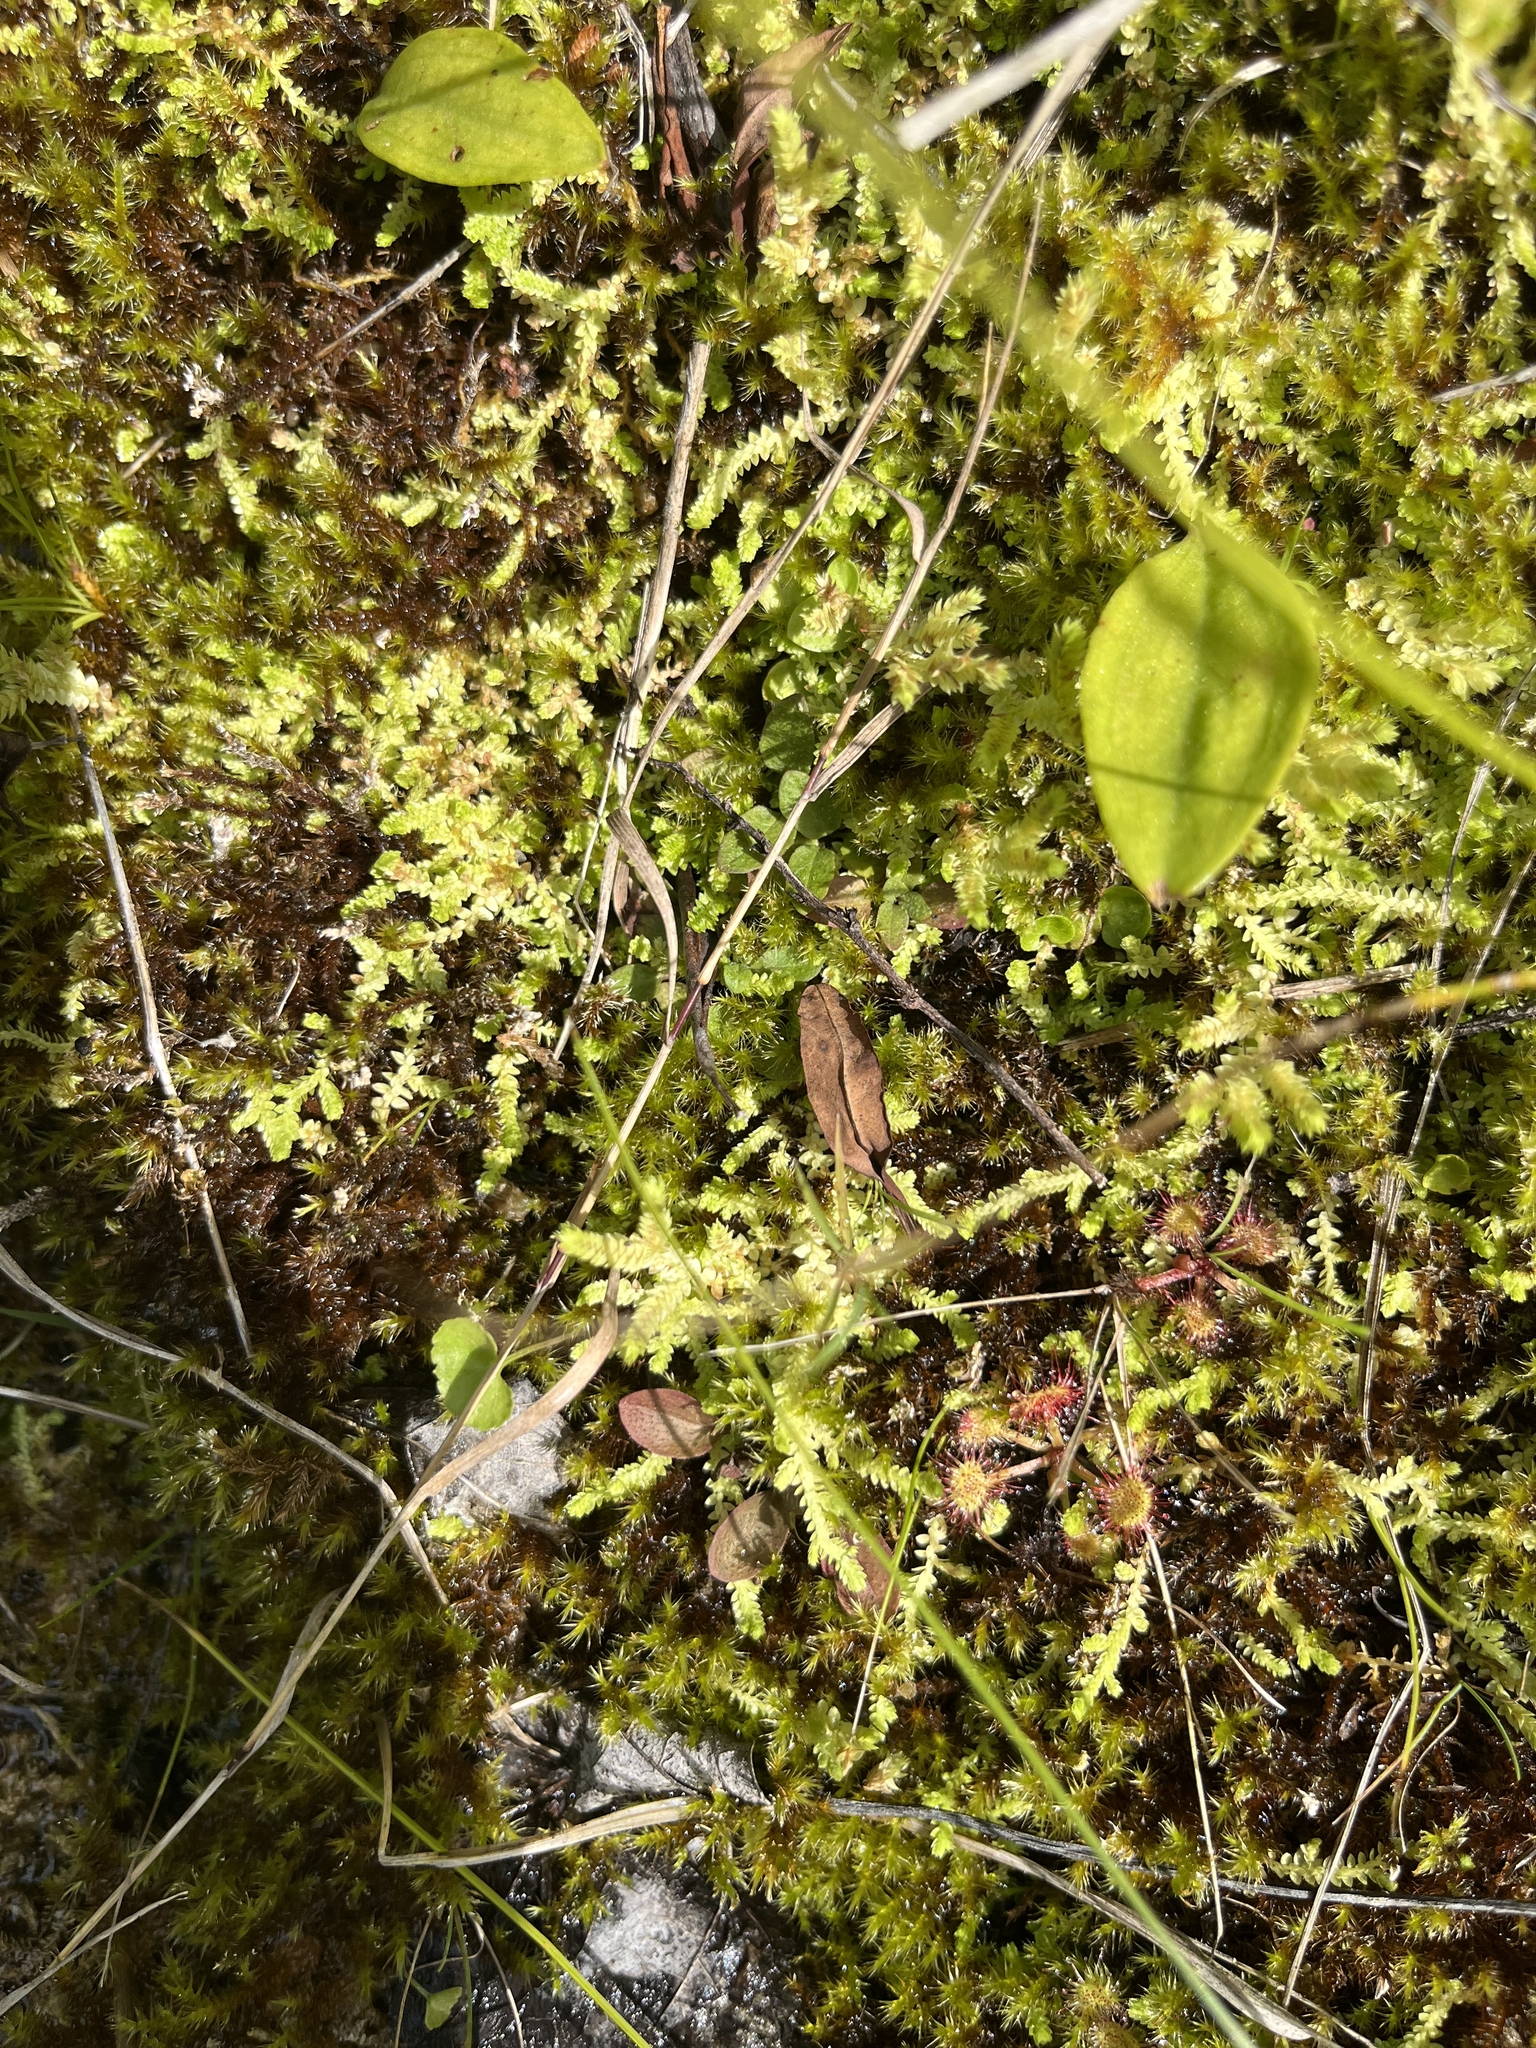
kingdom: Plantae
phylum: Tracheophyta
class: Lycopodiopsida
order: Selaginellales
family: Selaginellaceae
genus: Selaginella
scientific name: Selaginella apoda
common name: Creeping spikemoss
